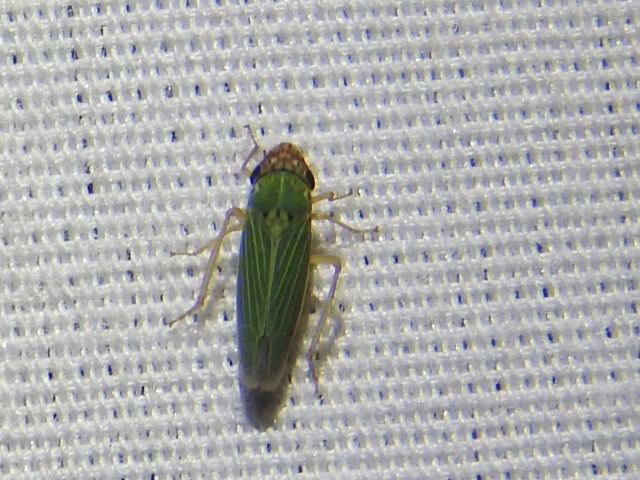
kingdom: Animalia
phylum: Arthropoda
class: Insecta
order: Hemiptera
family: Cicadellidae
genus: Xyphon
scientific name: Xyphon reticulatum
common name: Planthopper
